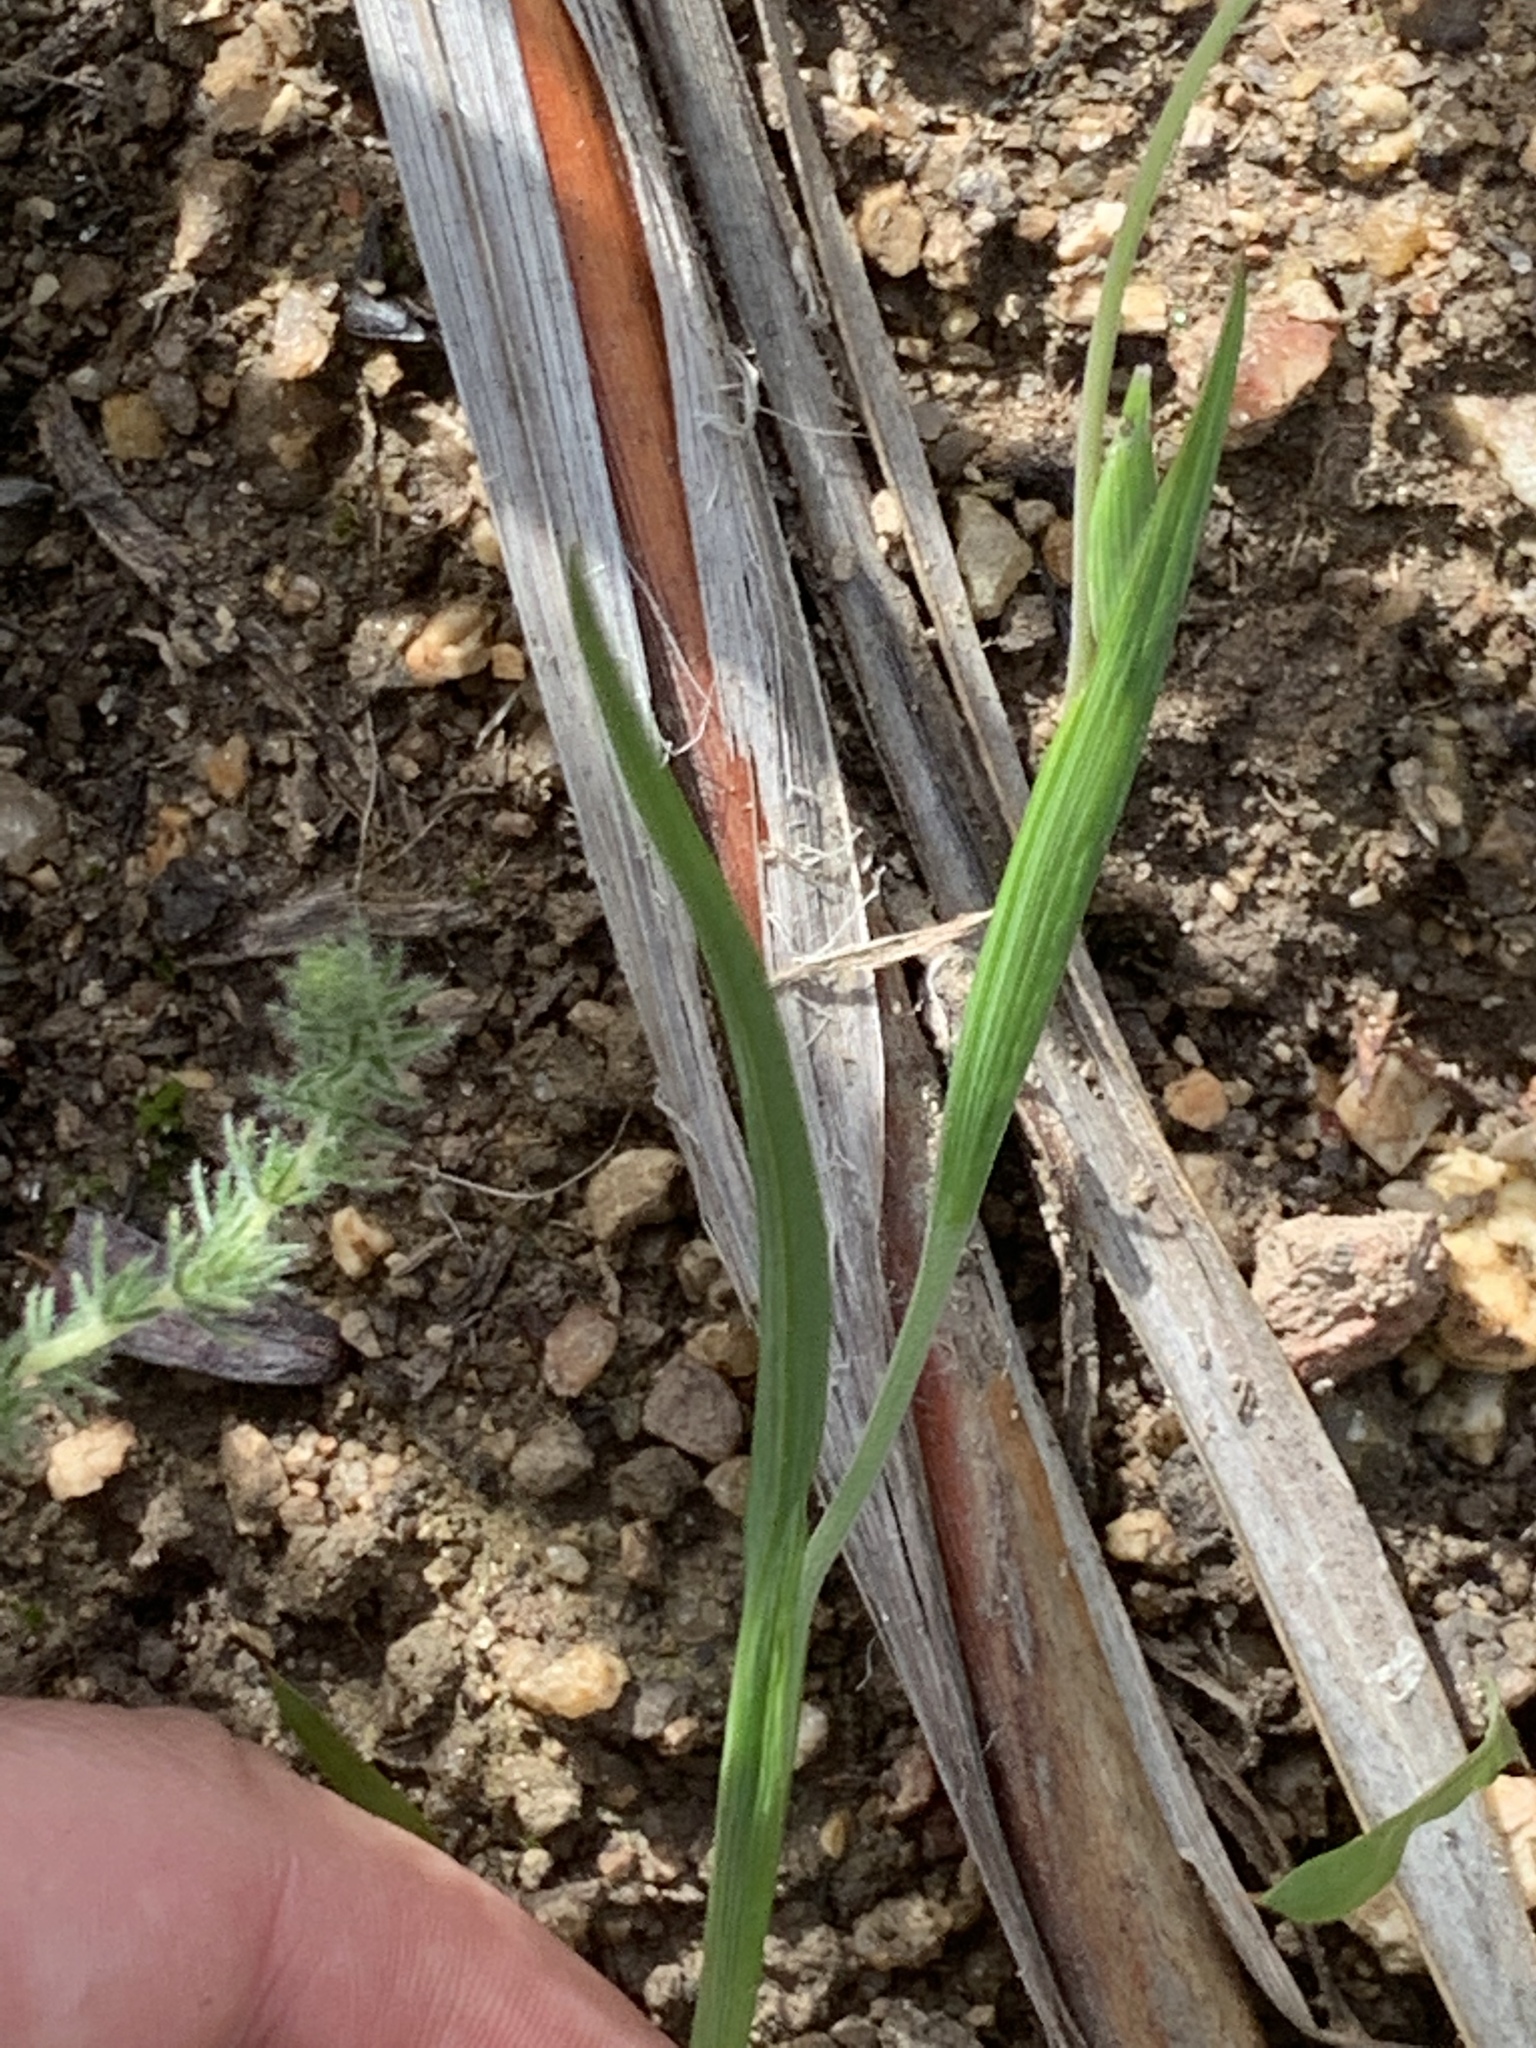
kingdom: Plantae
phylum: Tracheophyta
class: Liliopsida
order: Asparagales
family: Iridaceae
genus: Geissorhiza
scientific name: Geissorhiza aspera
